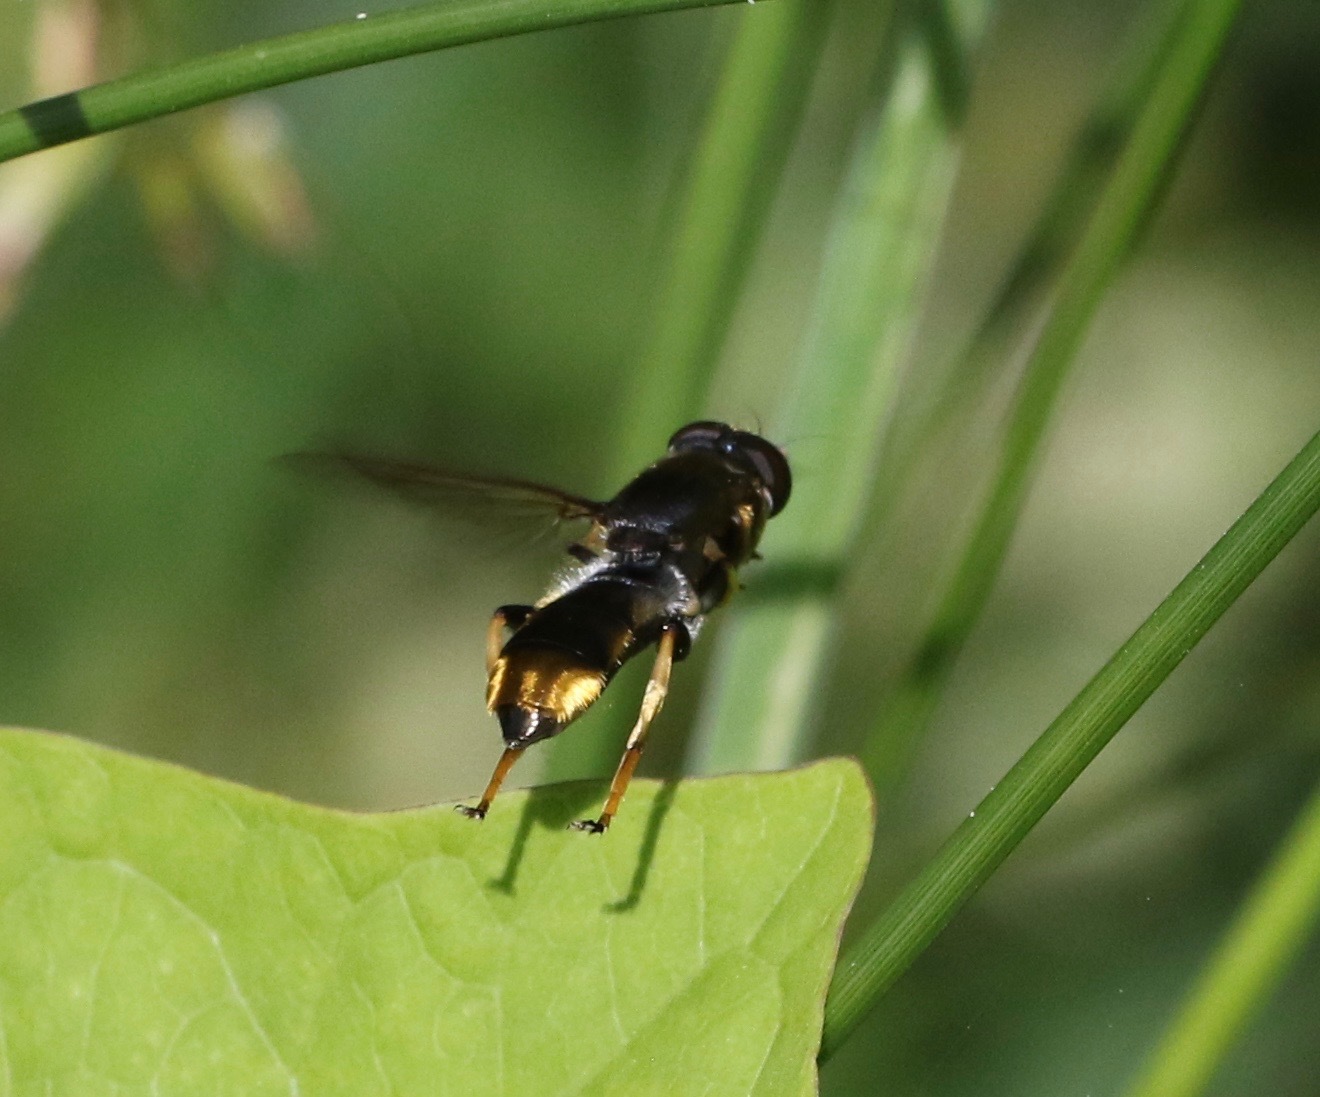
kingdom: Animalia
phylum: Arthropoda
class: Insecta
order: Diptera
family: Syrphidae
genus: Xylota
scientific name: Xylota sylvarum
